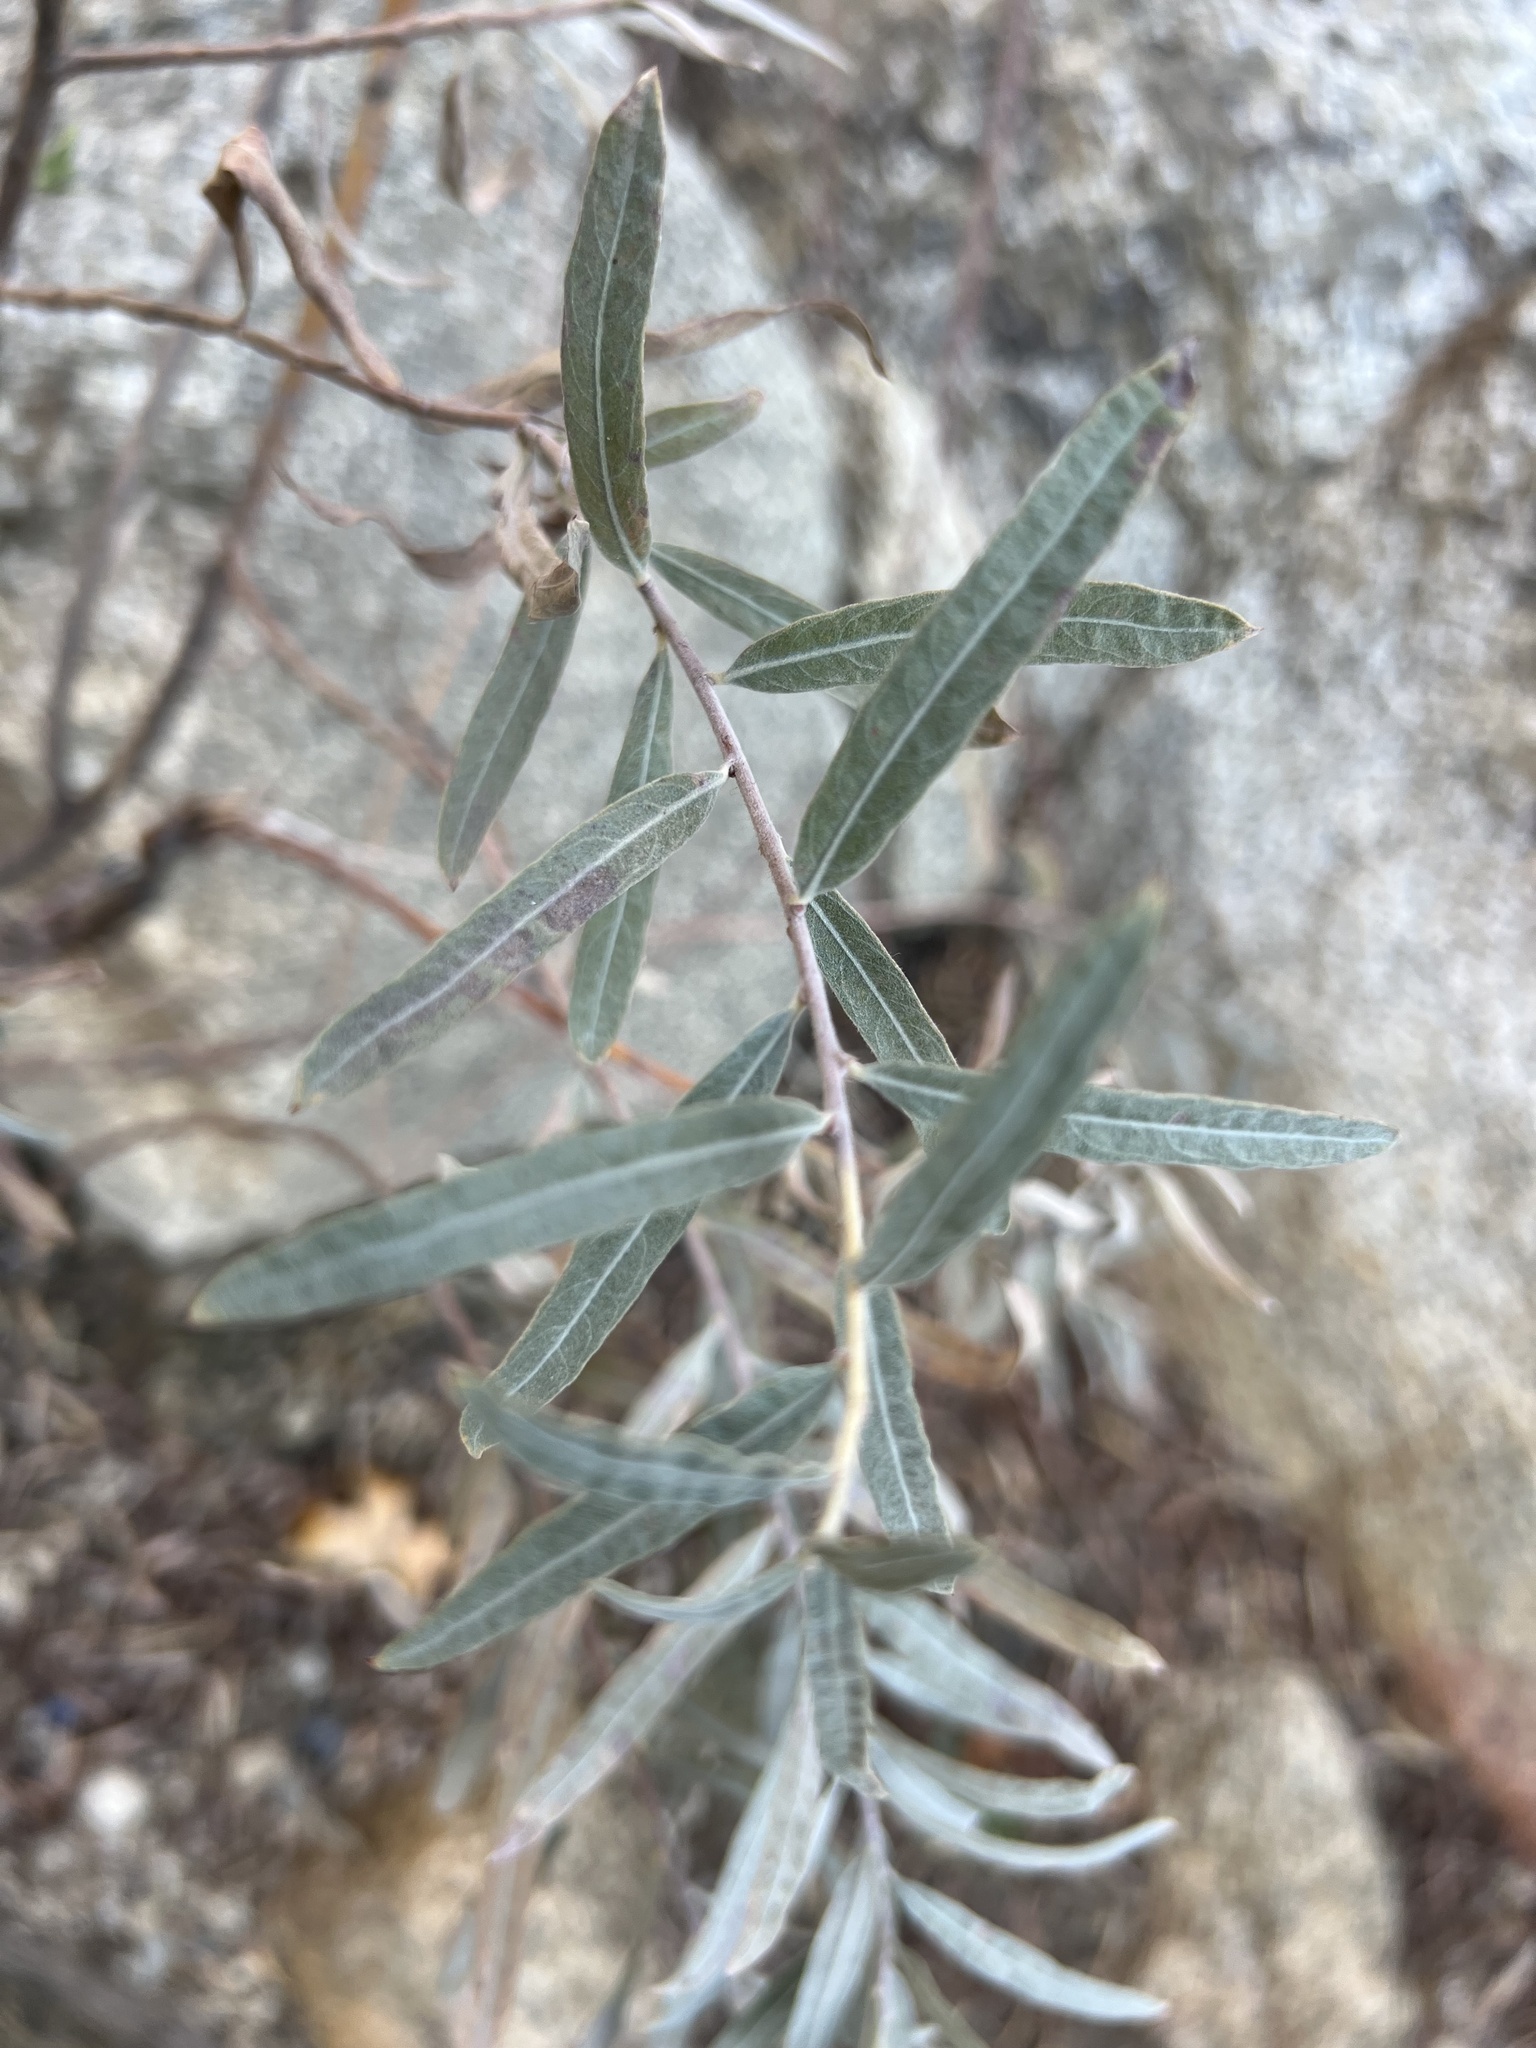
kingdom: Plantae
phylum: Tracheophyta
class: Magnoliopsida
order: Malpighiales
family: Salicaceae
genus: Salix
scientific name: Salix exigua
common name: Coyote willow
